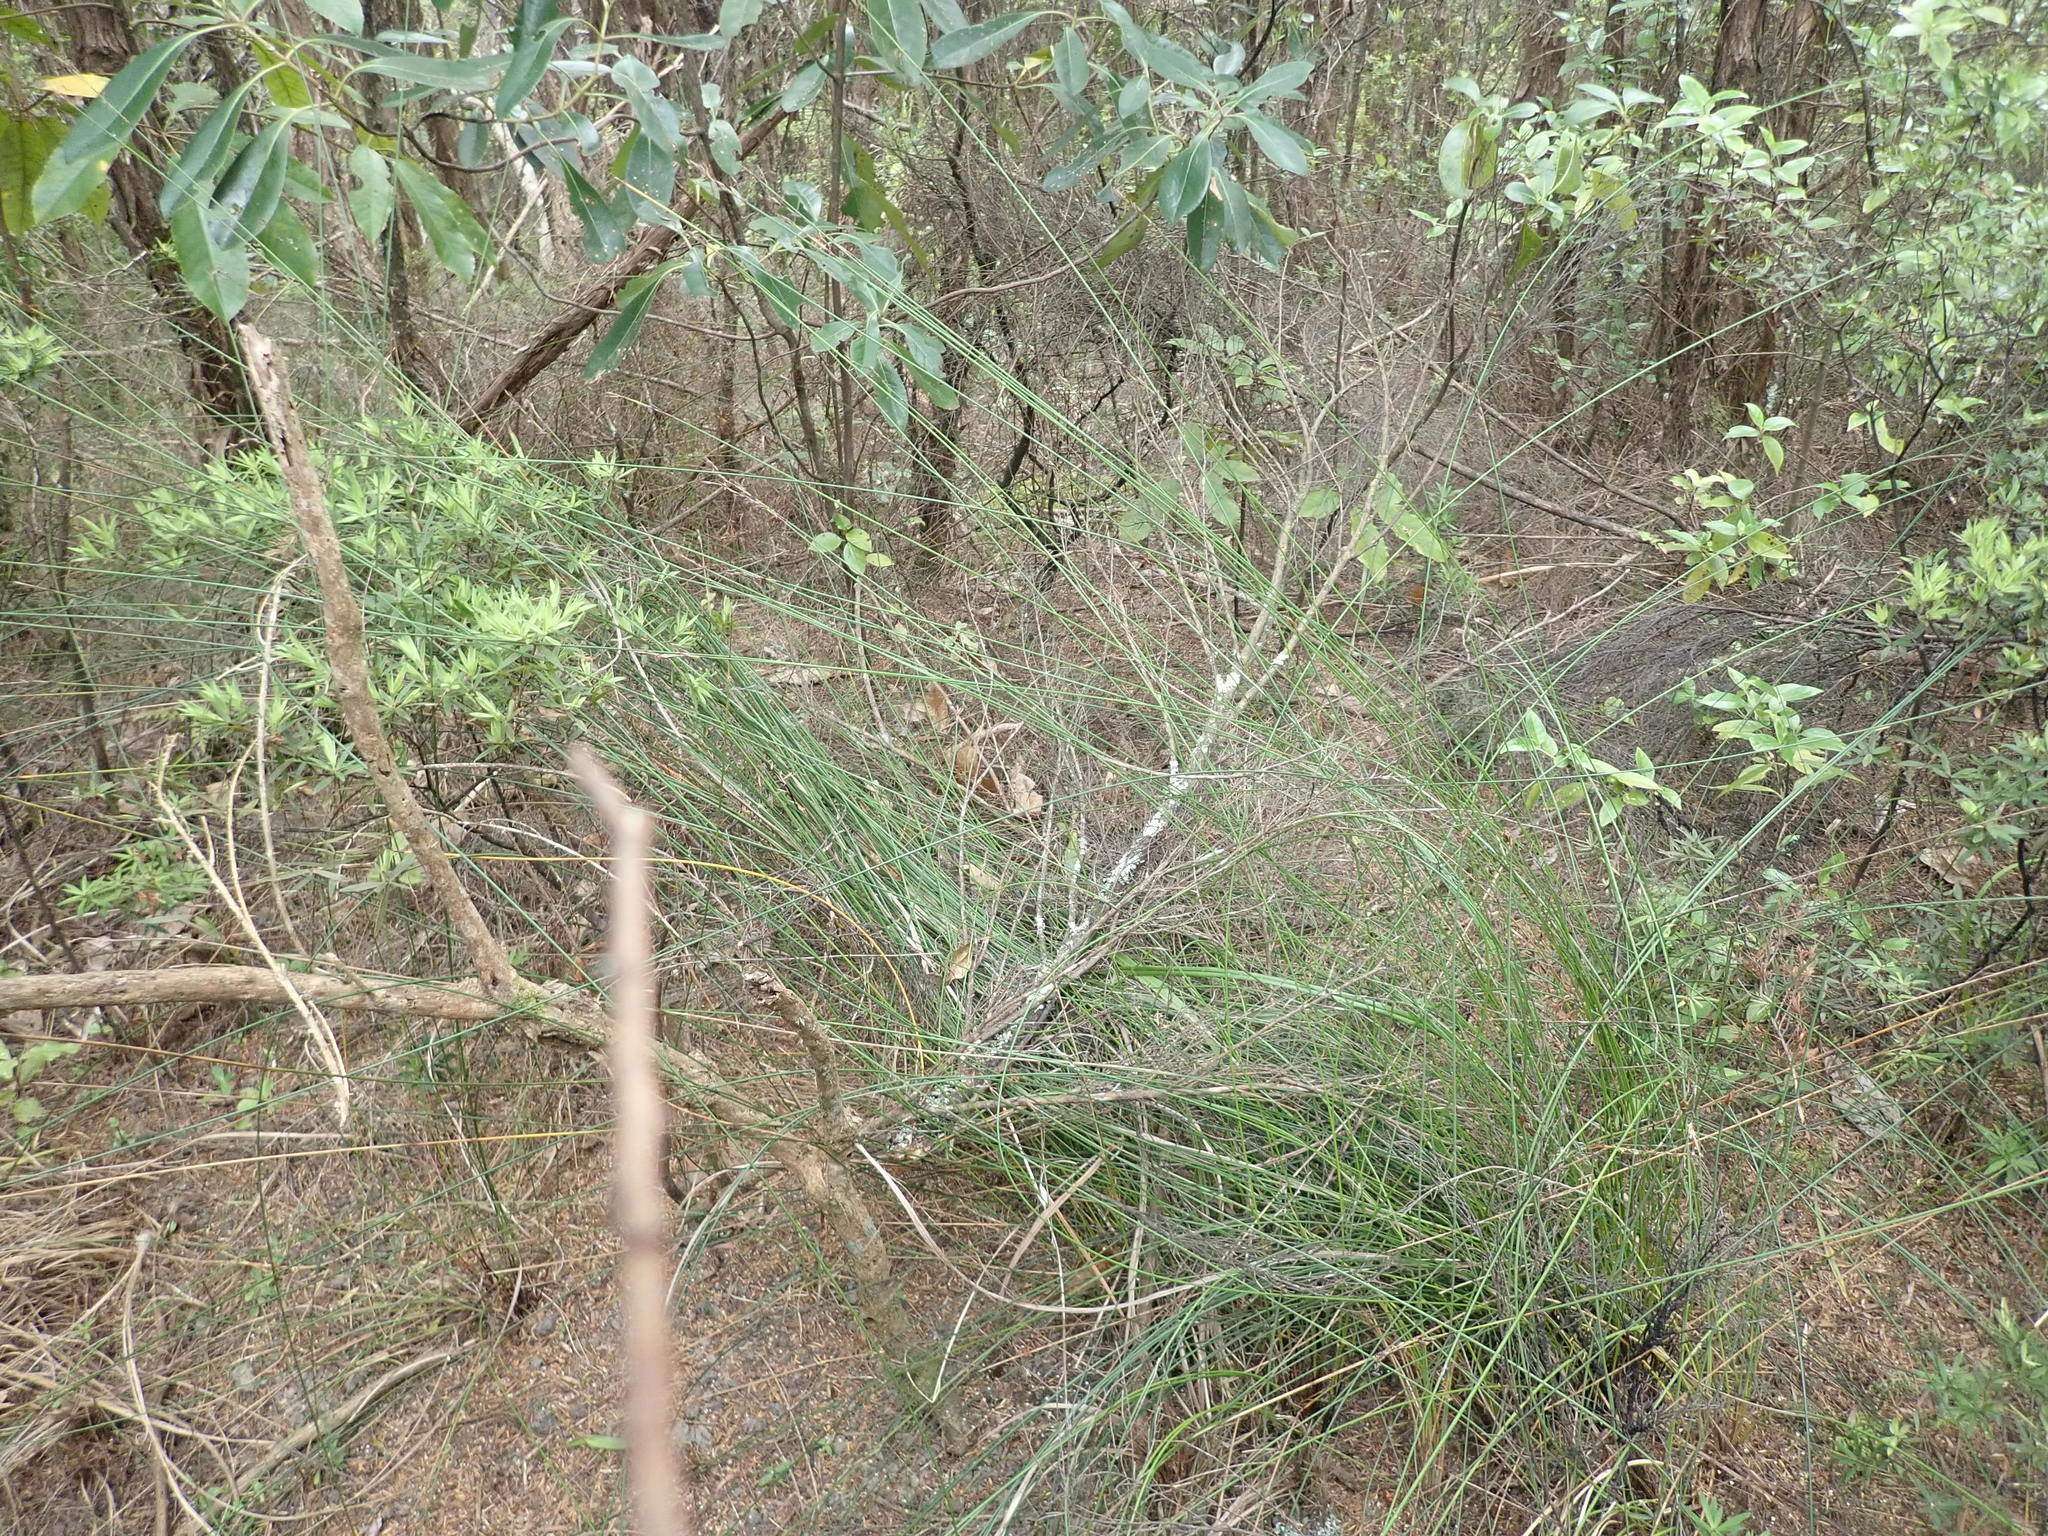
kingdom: Plantae
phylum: Tracheophyta
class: Liliopsida
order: Poales
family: Cyperaceae
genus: Schoenus
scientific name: Schoenus tendo
